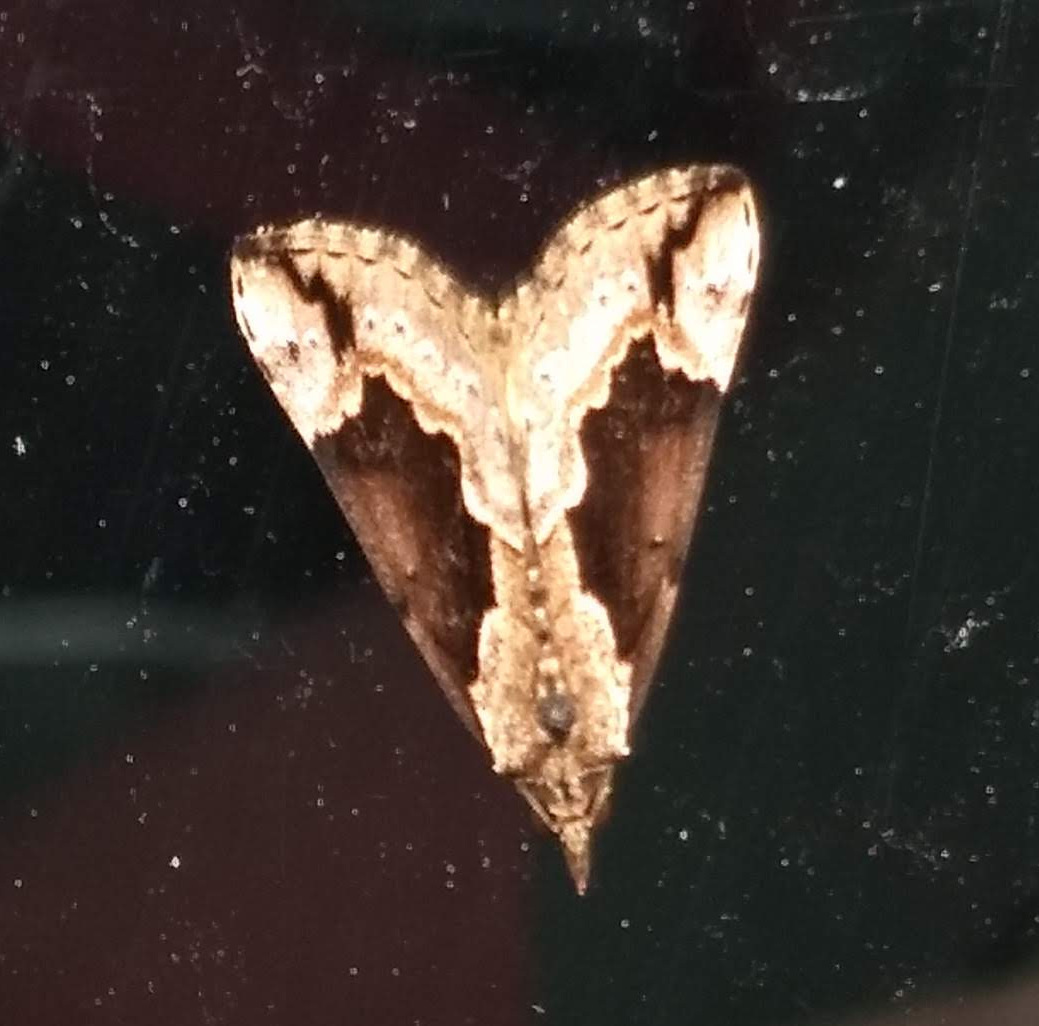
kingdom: Animalia
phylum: Arthropoda
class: Insecta
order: Lepidoptera
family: Erebidae
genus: Hypena
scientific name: Hypena baltimoralis
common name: Baltimore snout
